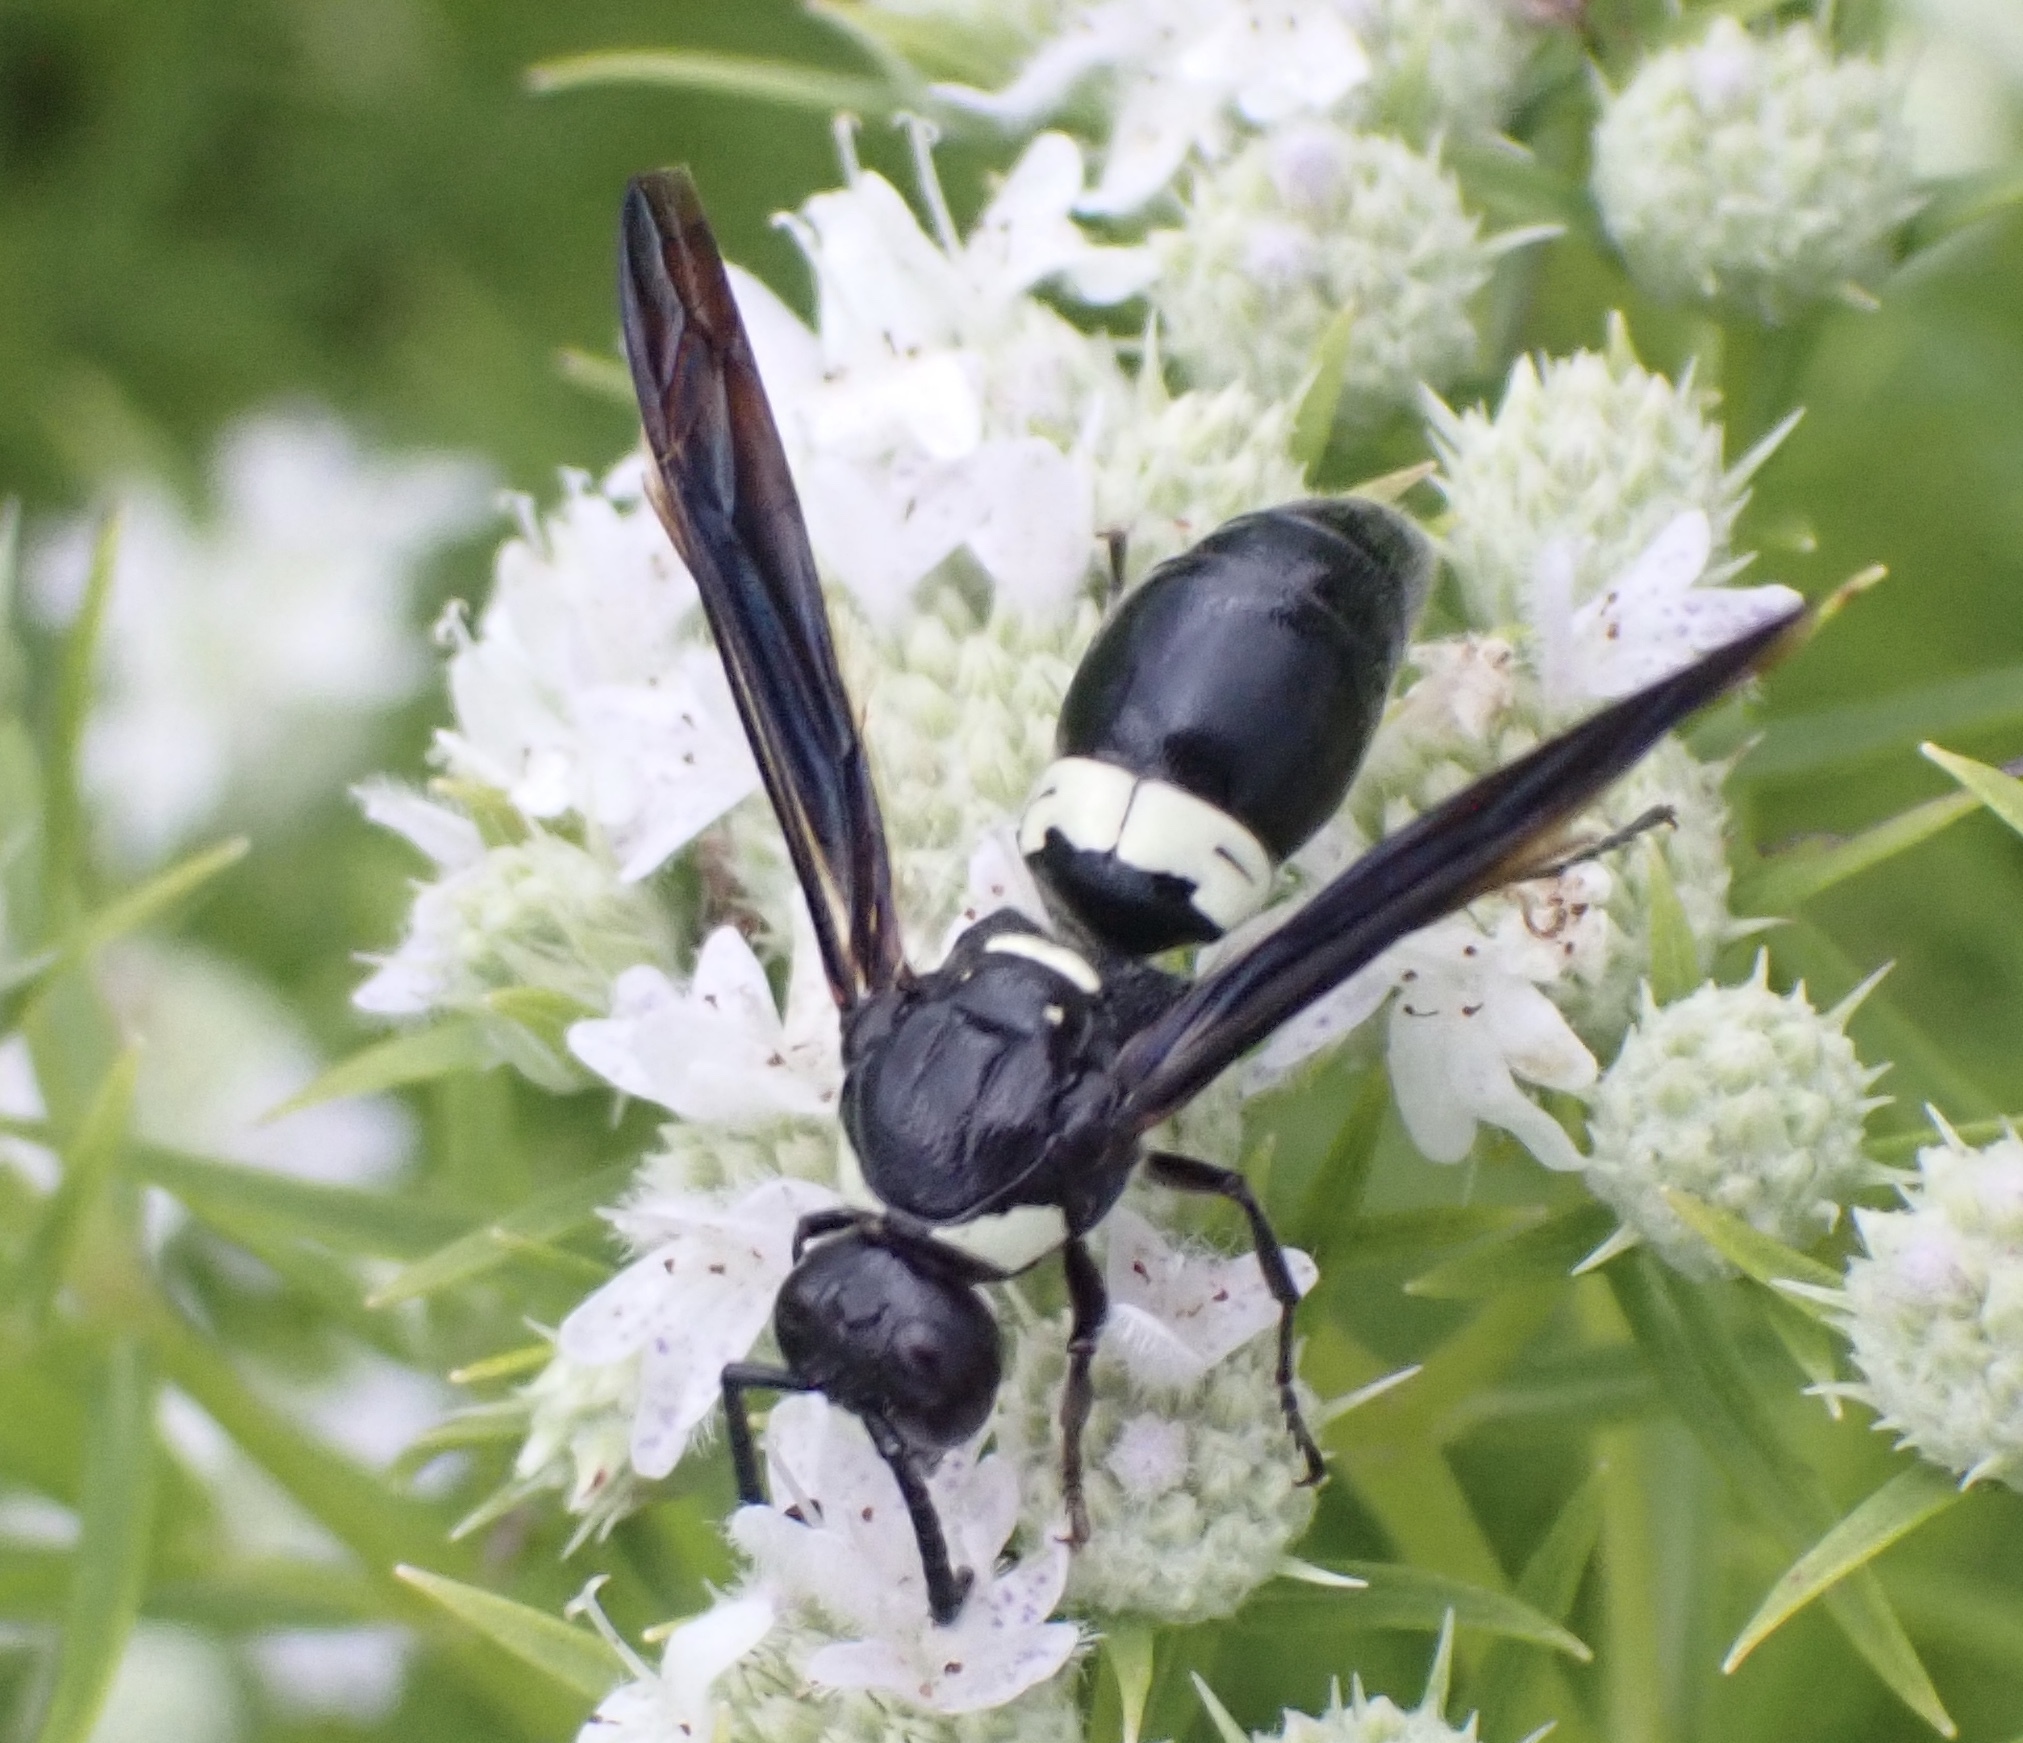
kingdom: Animalia
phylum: Arthropoda
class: Insecta
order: Hymenoptera
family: Eumenidae
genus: Monobia
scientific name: Monobia quadridens
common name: Four-toothed mason wasp
